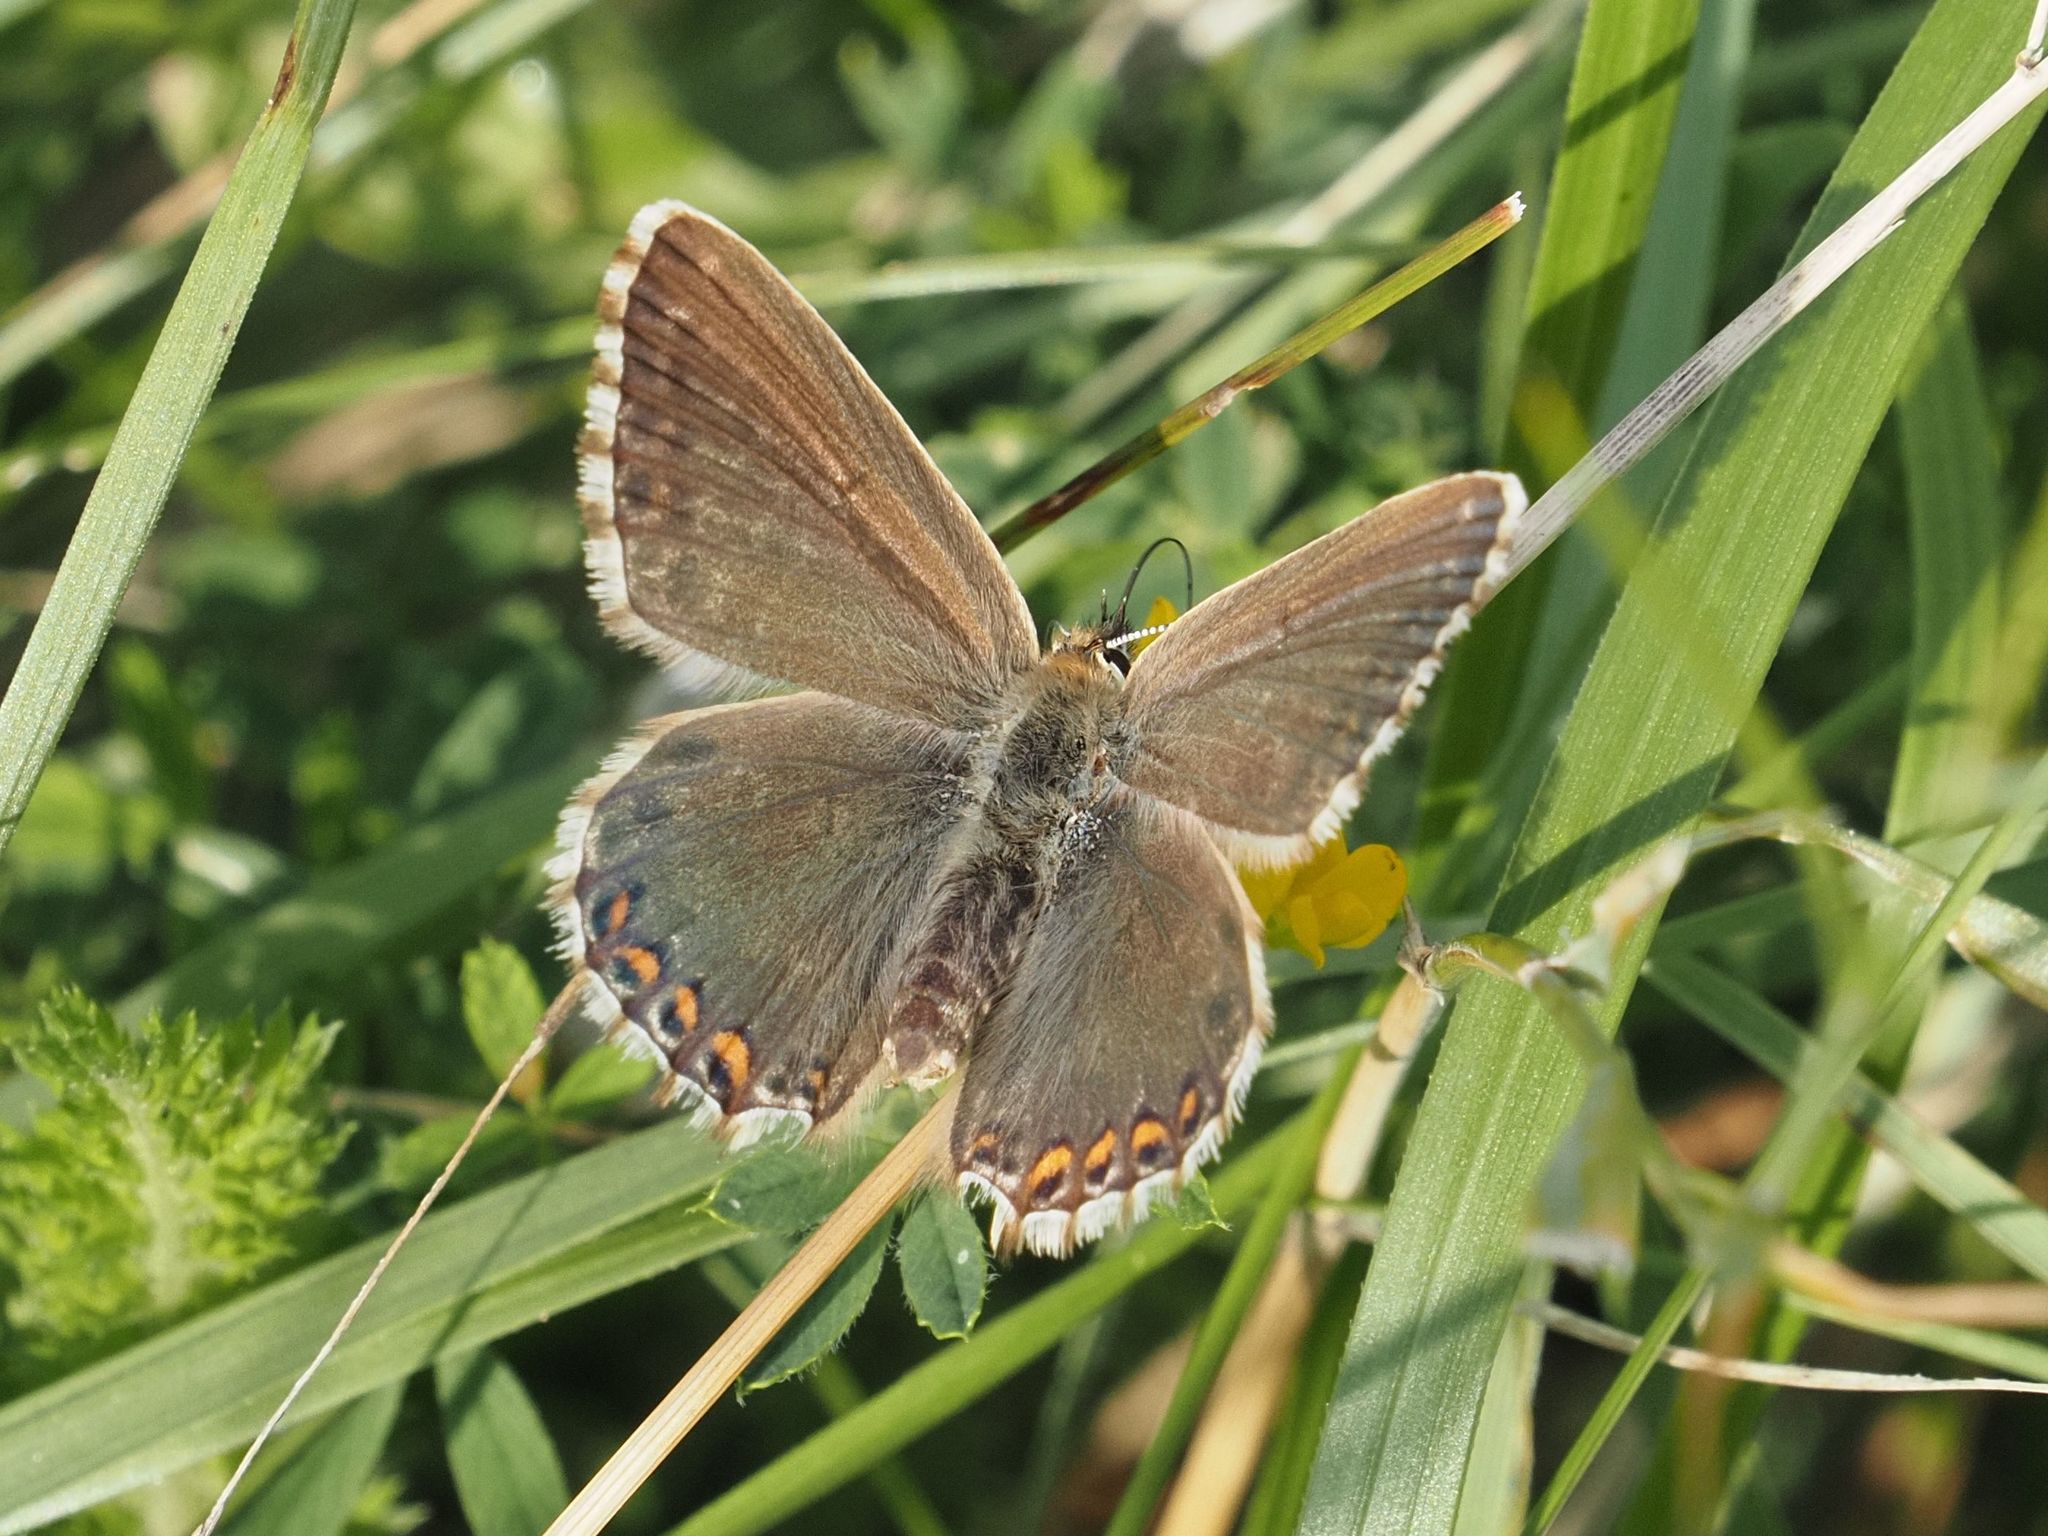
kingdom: Animalia
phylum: Arthropoda
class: Insecta
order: Lepidoptera
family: Lycaenidae
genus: Lysandra
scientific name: Lysandra coridon
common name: Chalkhill blue
